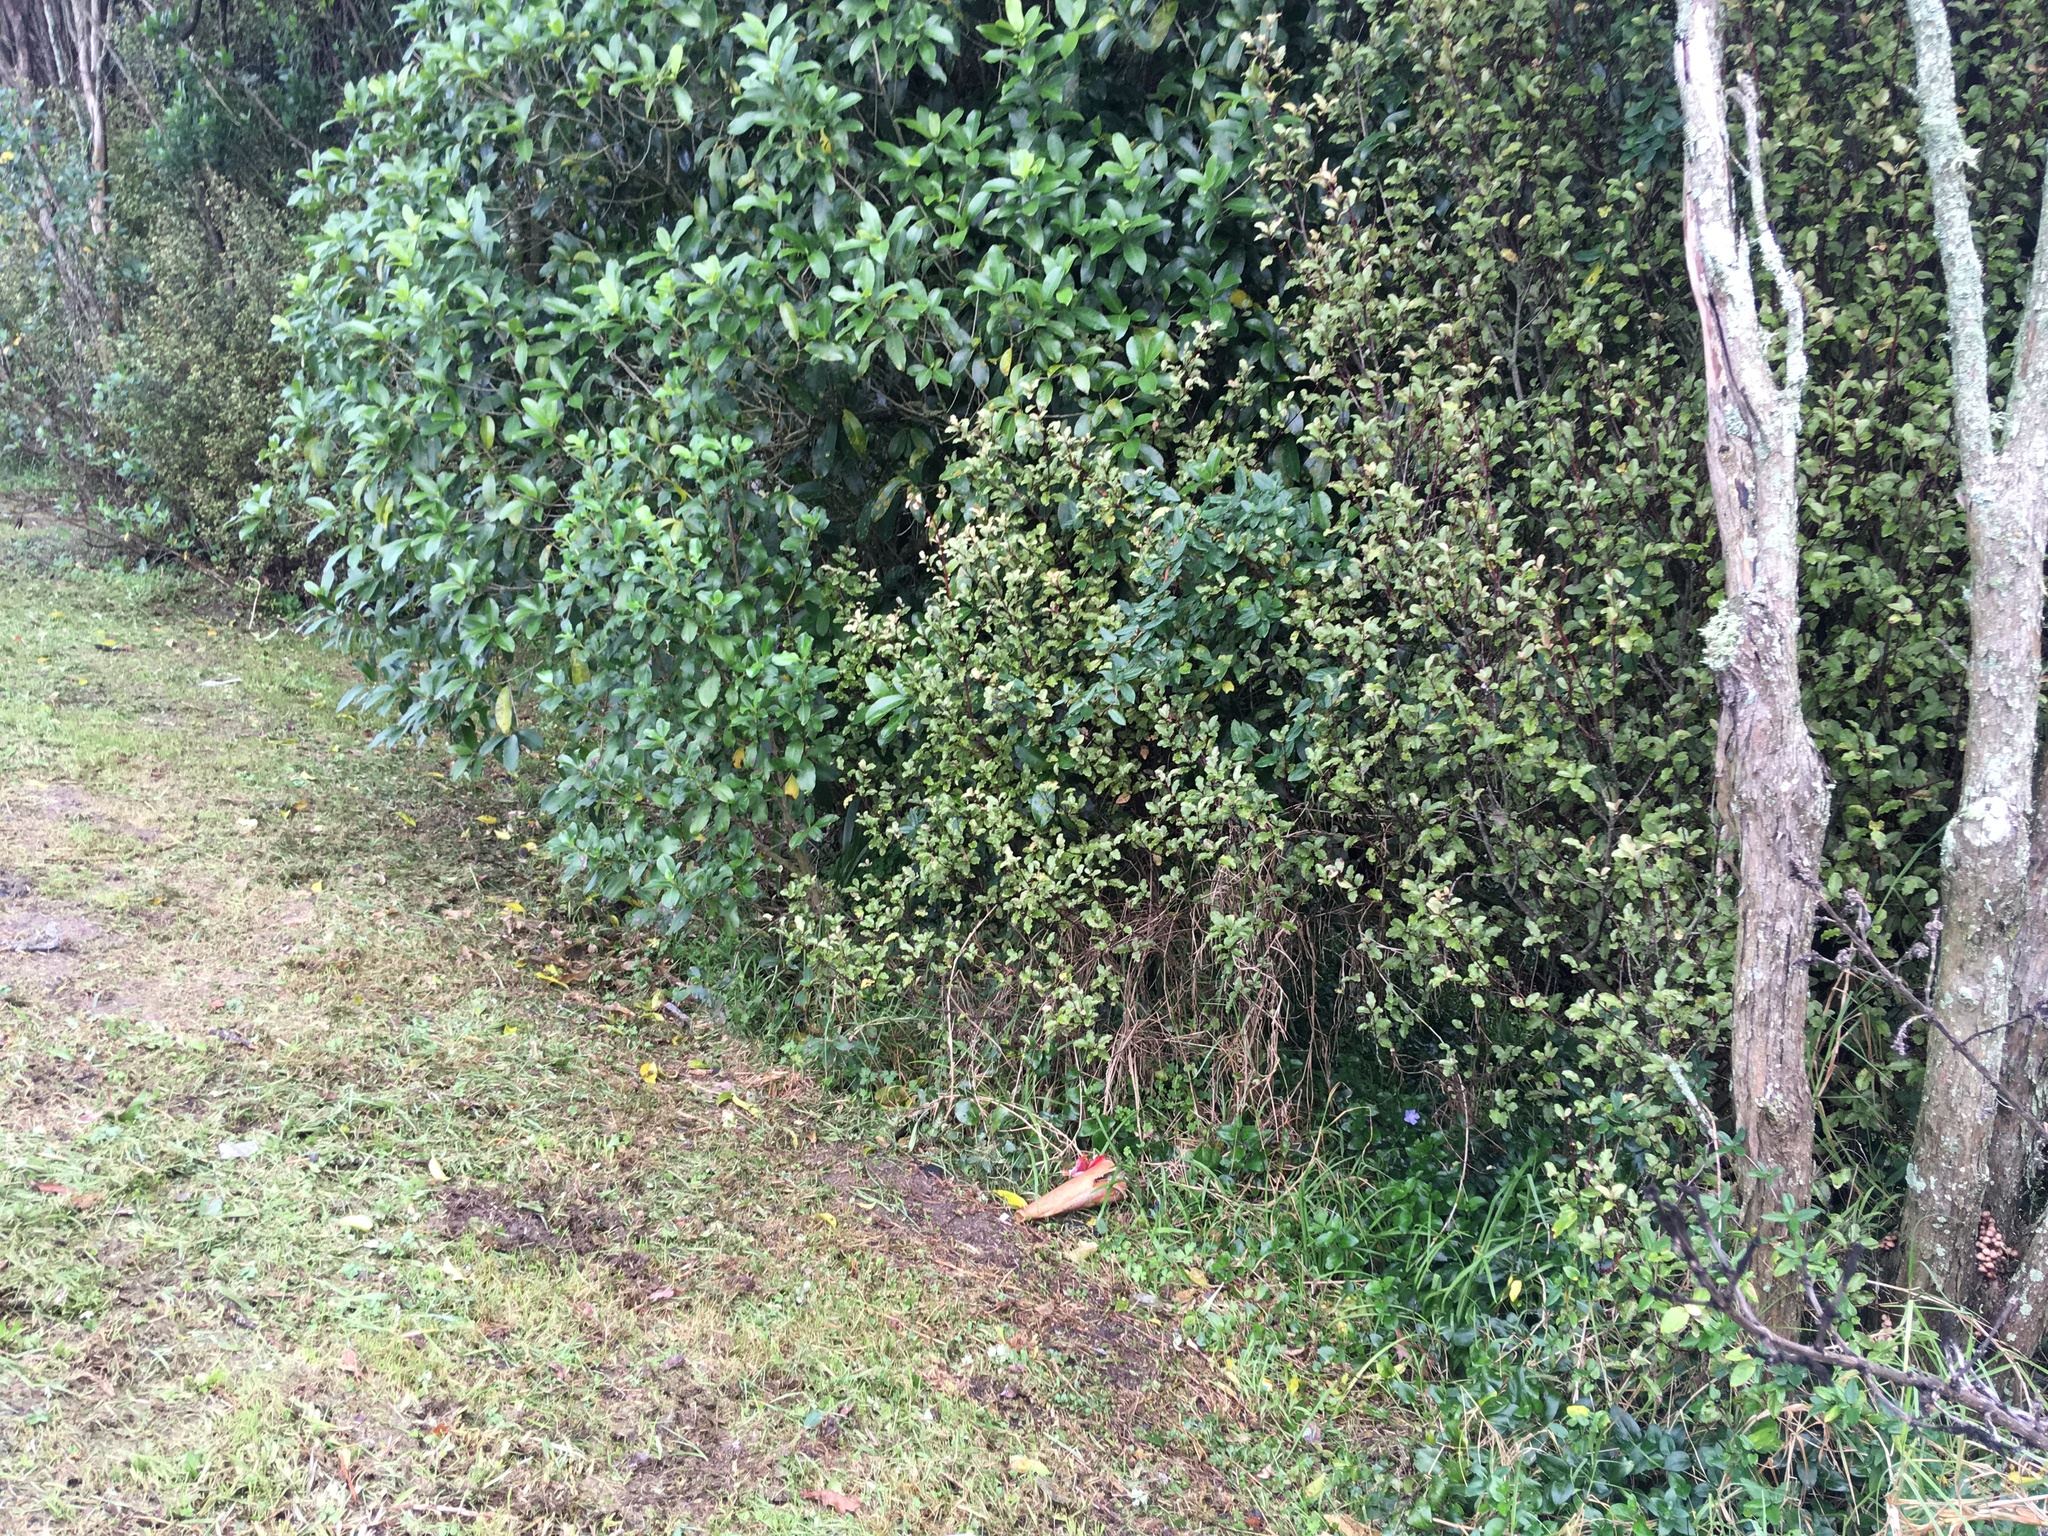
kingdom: Plantae
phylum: Tracheophyta
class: Magnoliopsida
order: Dipsacales
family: Caprifoliaceae
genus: Lonicera
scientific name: Lonicera japonica
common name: Japanese honeysuckle
